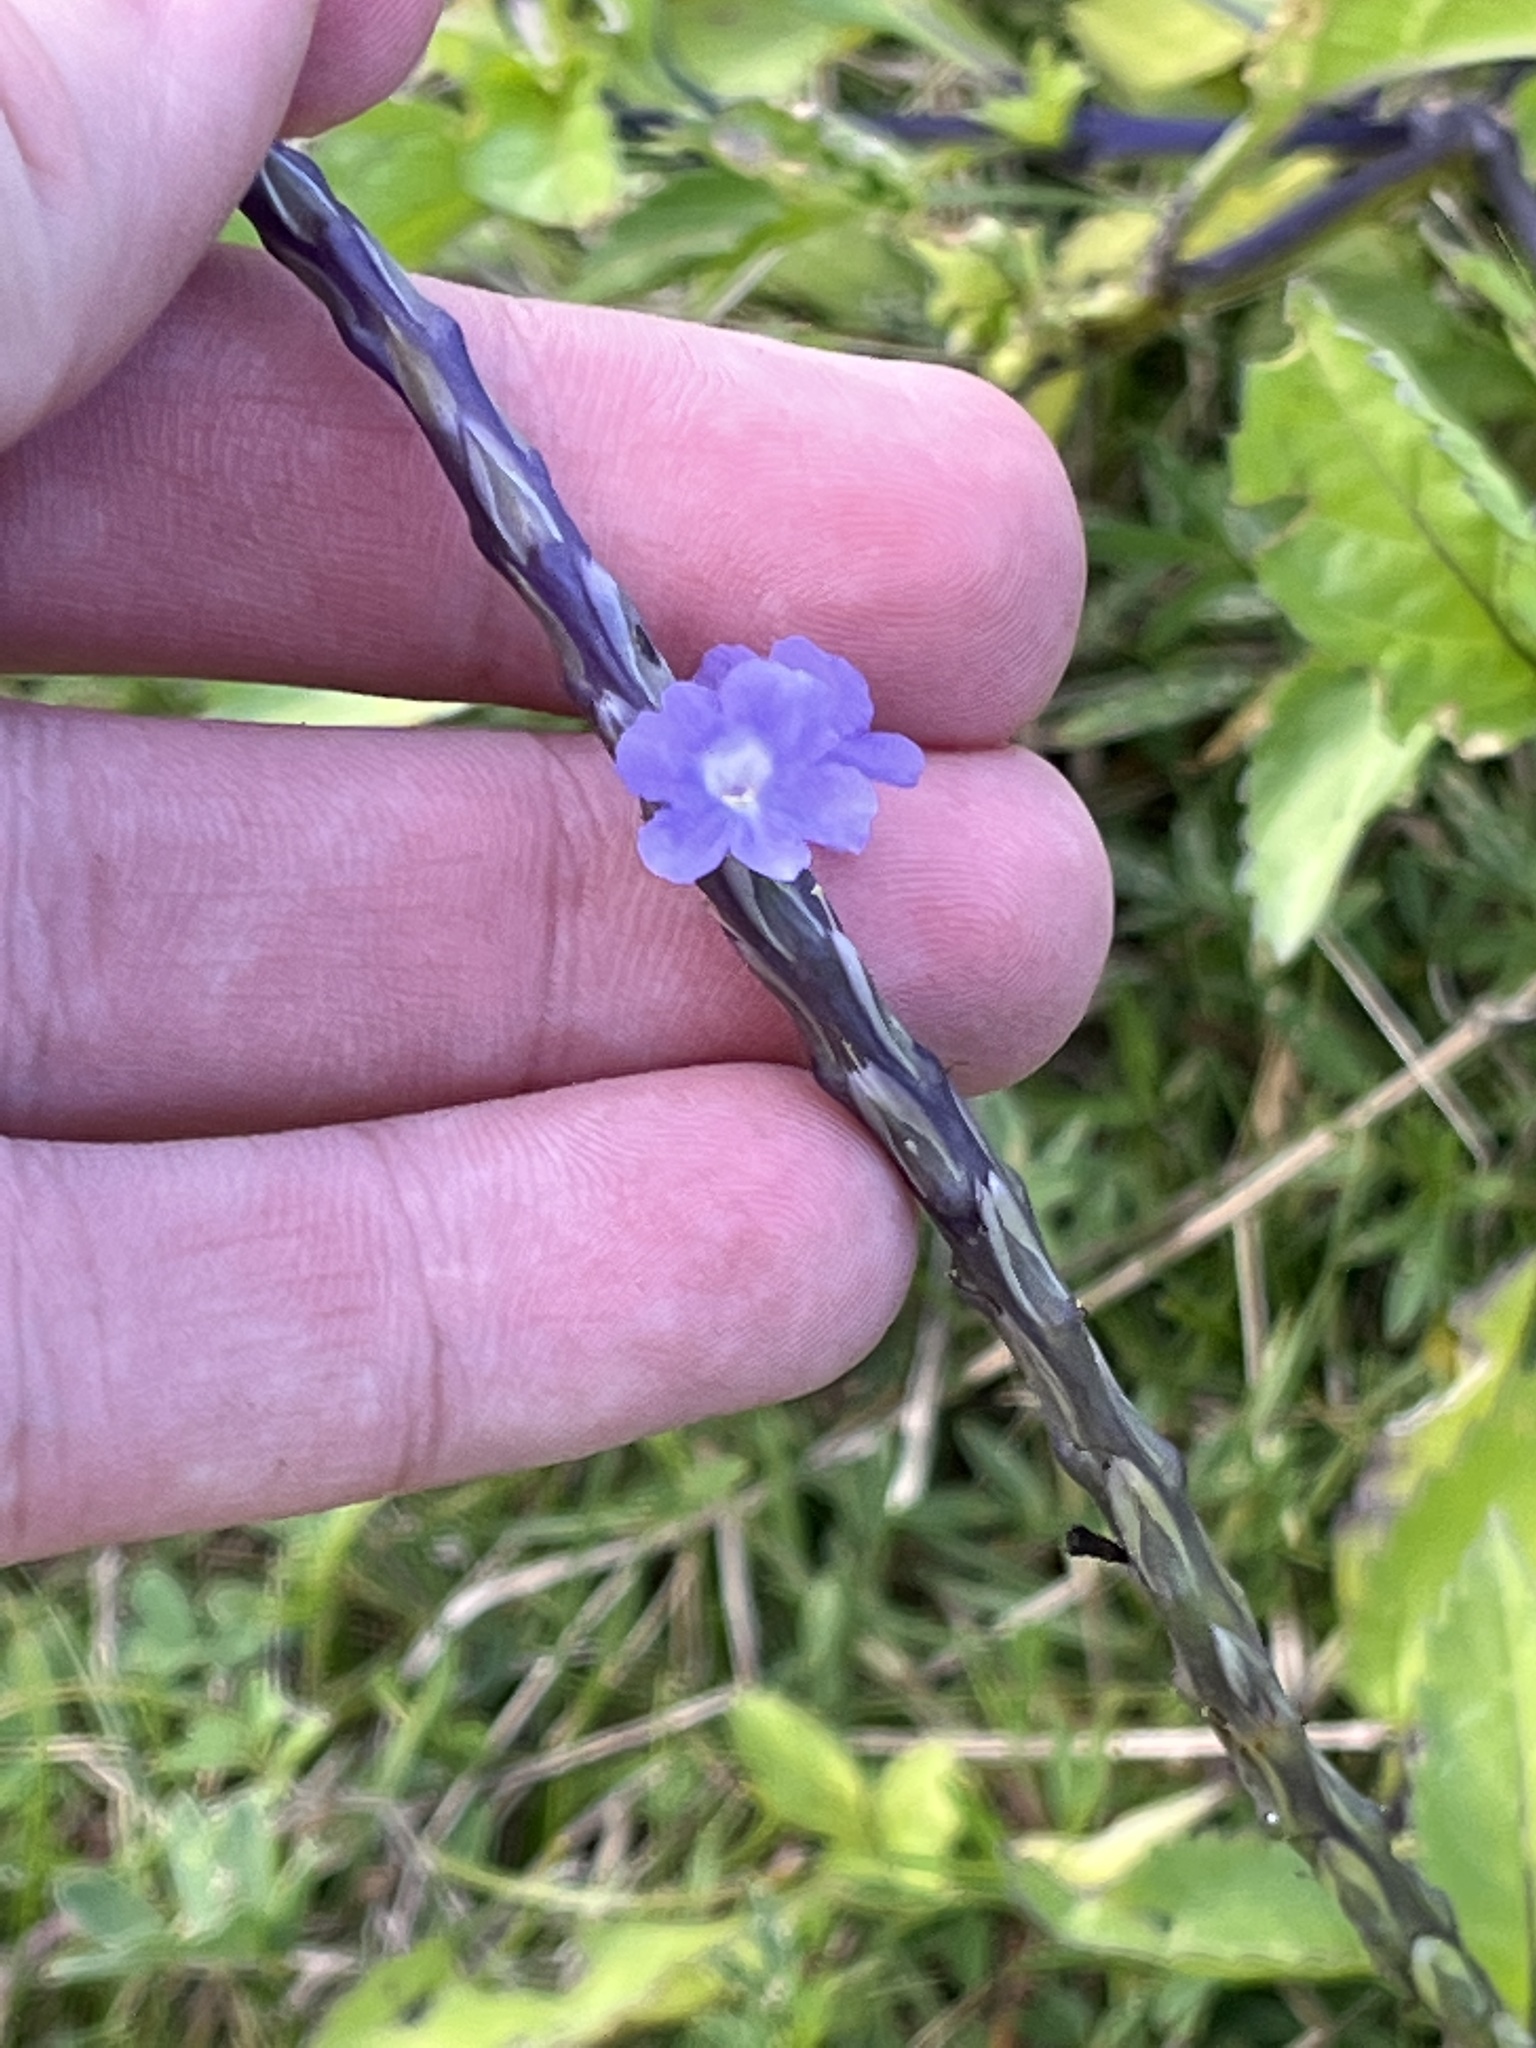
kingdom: Plantae
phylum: Tracheophyta
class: Magnoliopsida
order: Lamiales
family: Verbenaceae
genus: Stachytarpheta
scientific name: Stachytarpheta jamaicensis
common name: Light-blue snakeweed
